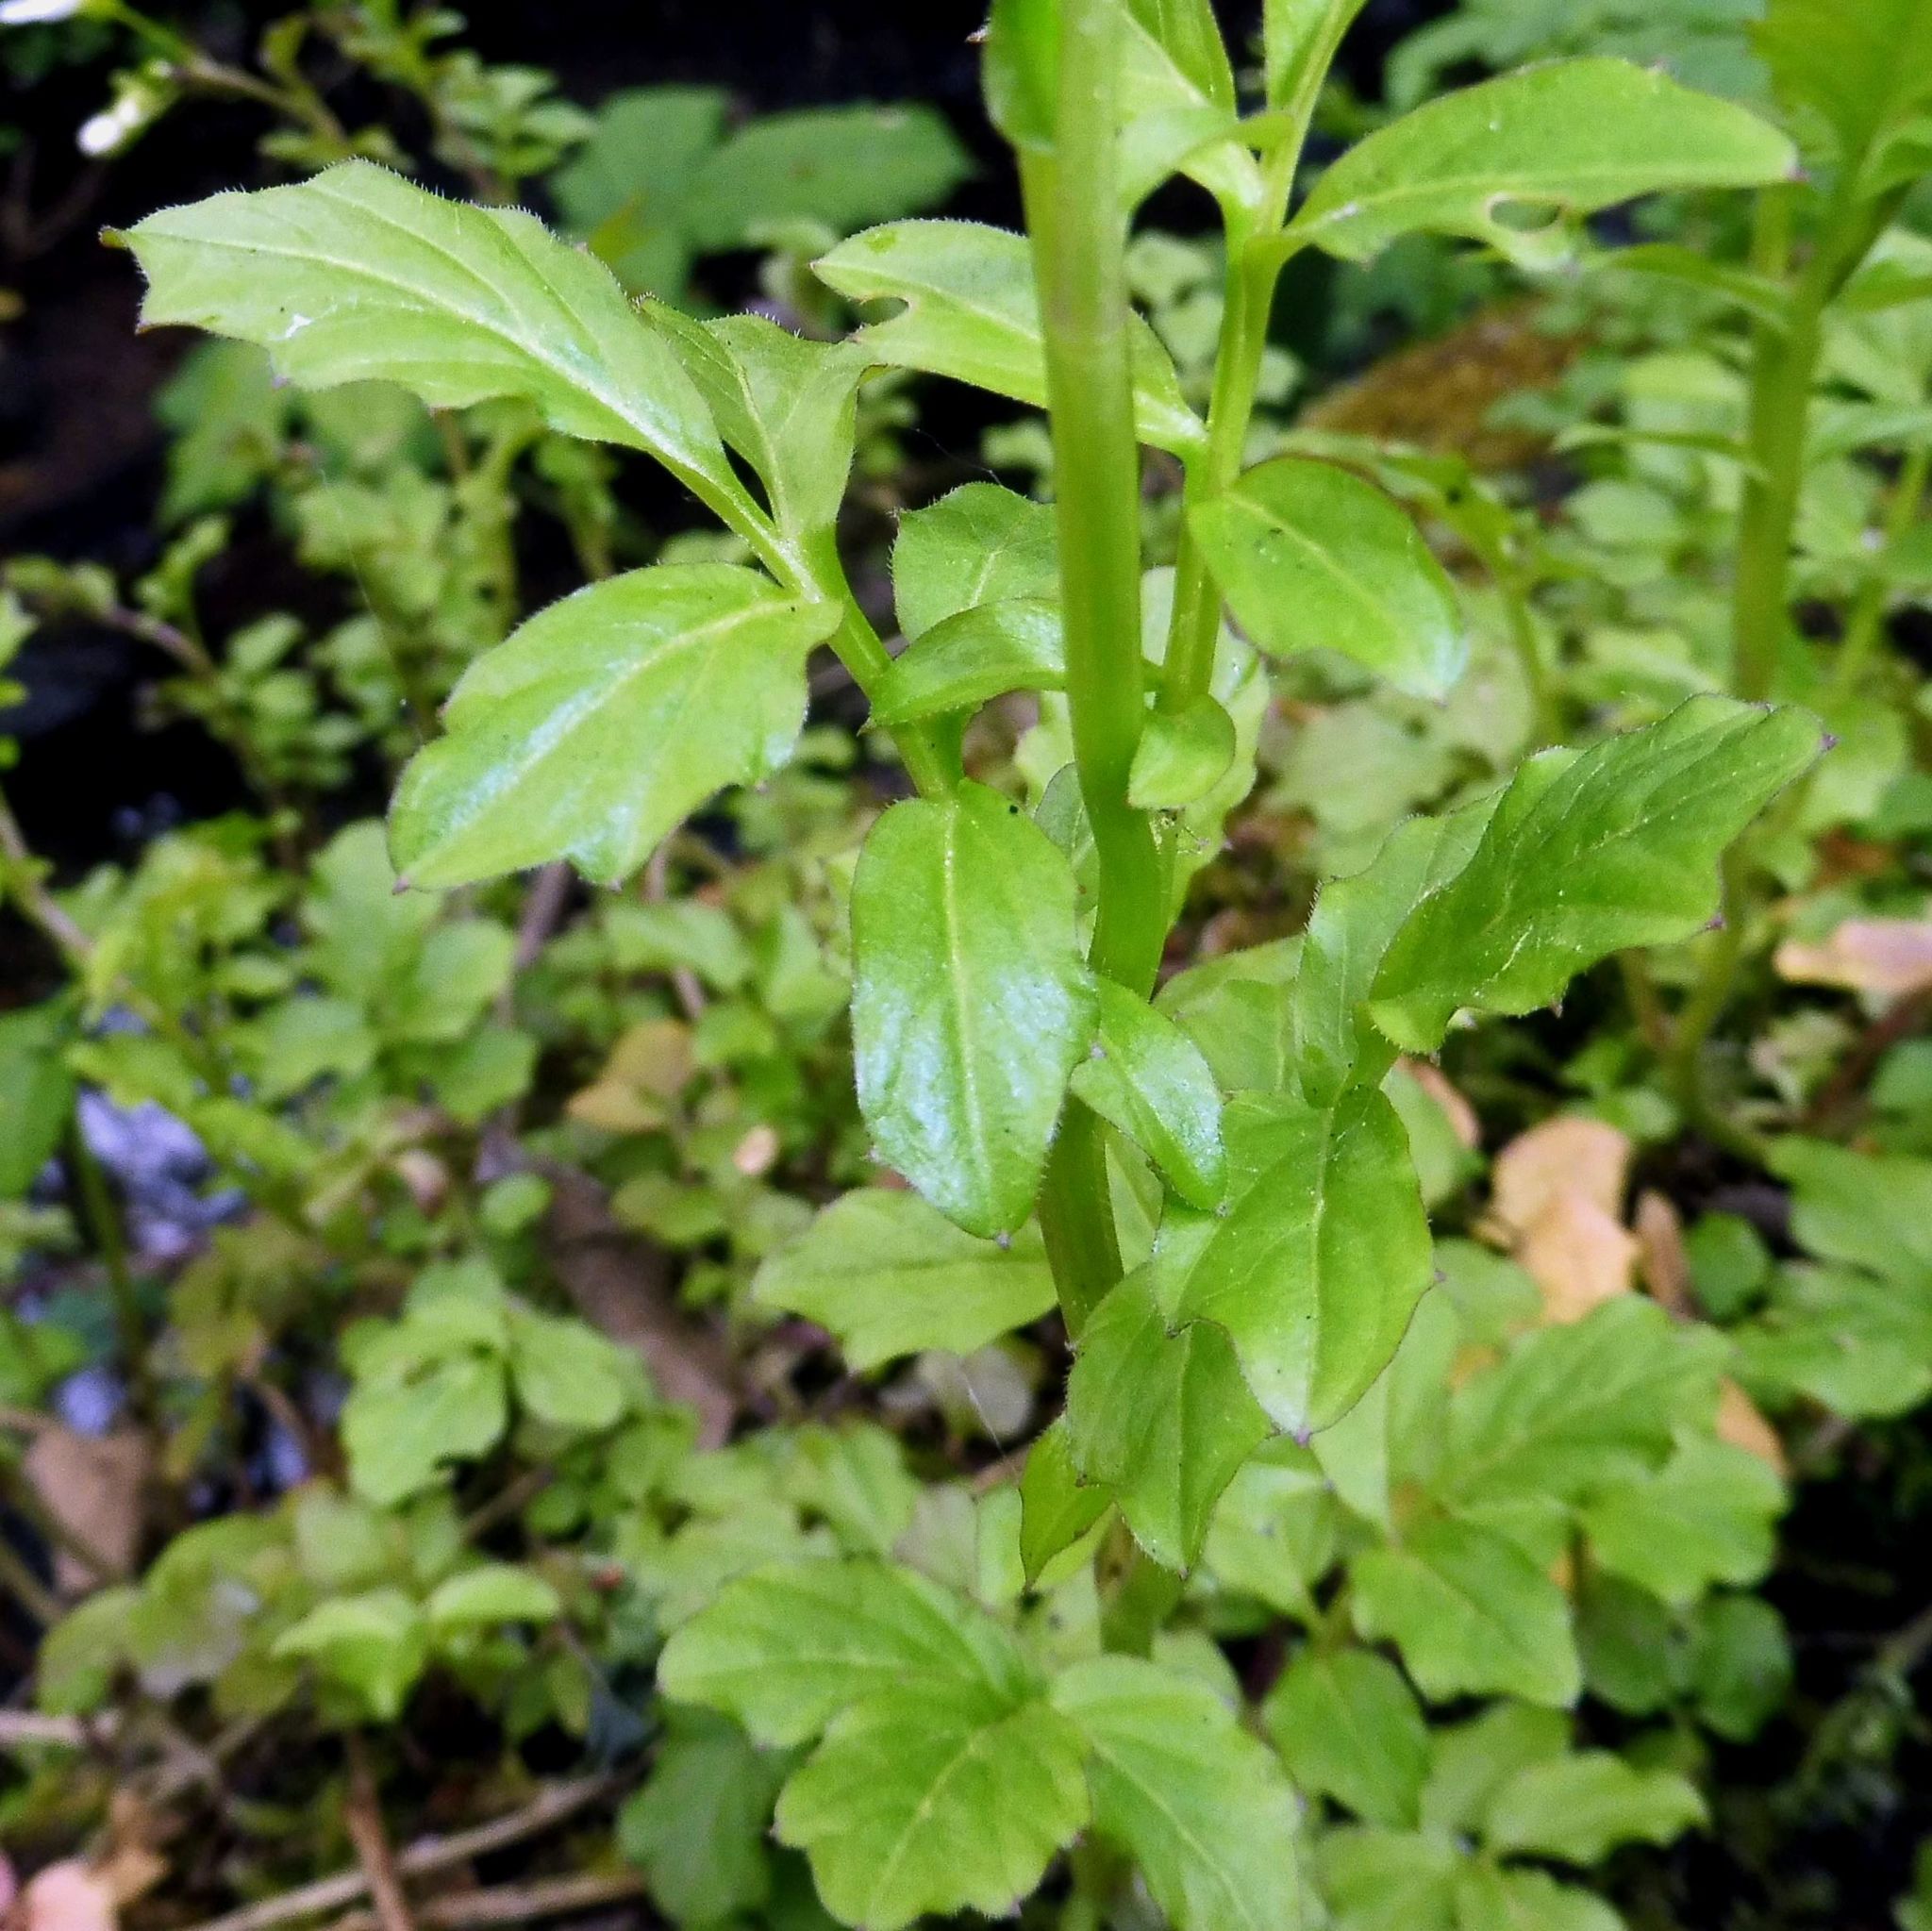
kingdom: Plantae
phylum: Tracheophyta
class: Magnoliopsida
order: Brassicales
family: Brassicaceae
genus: Cardamine
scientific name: Cardamine amara
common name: Large bitter-cress
